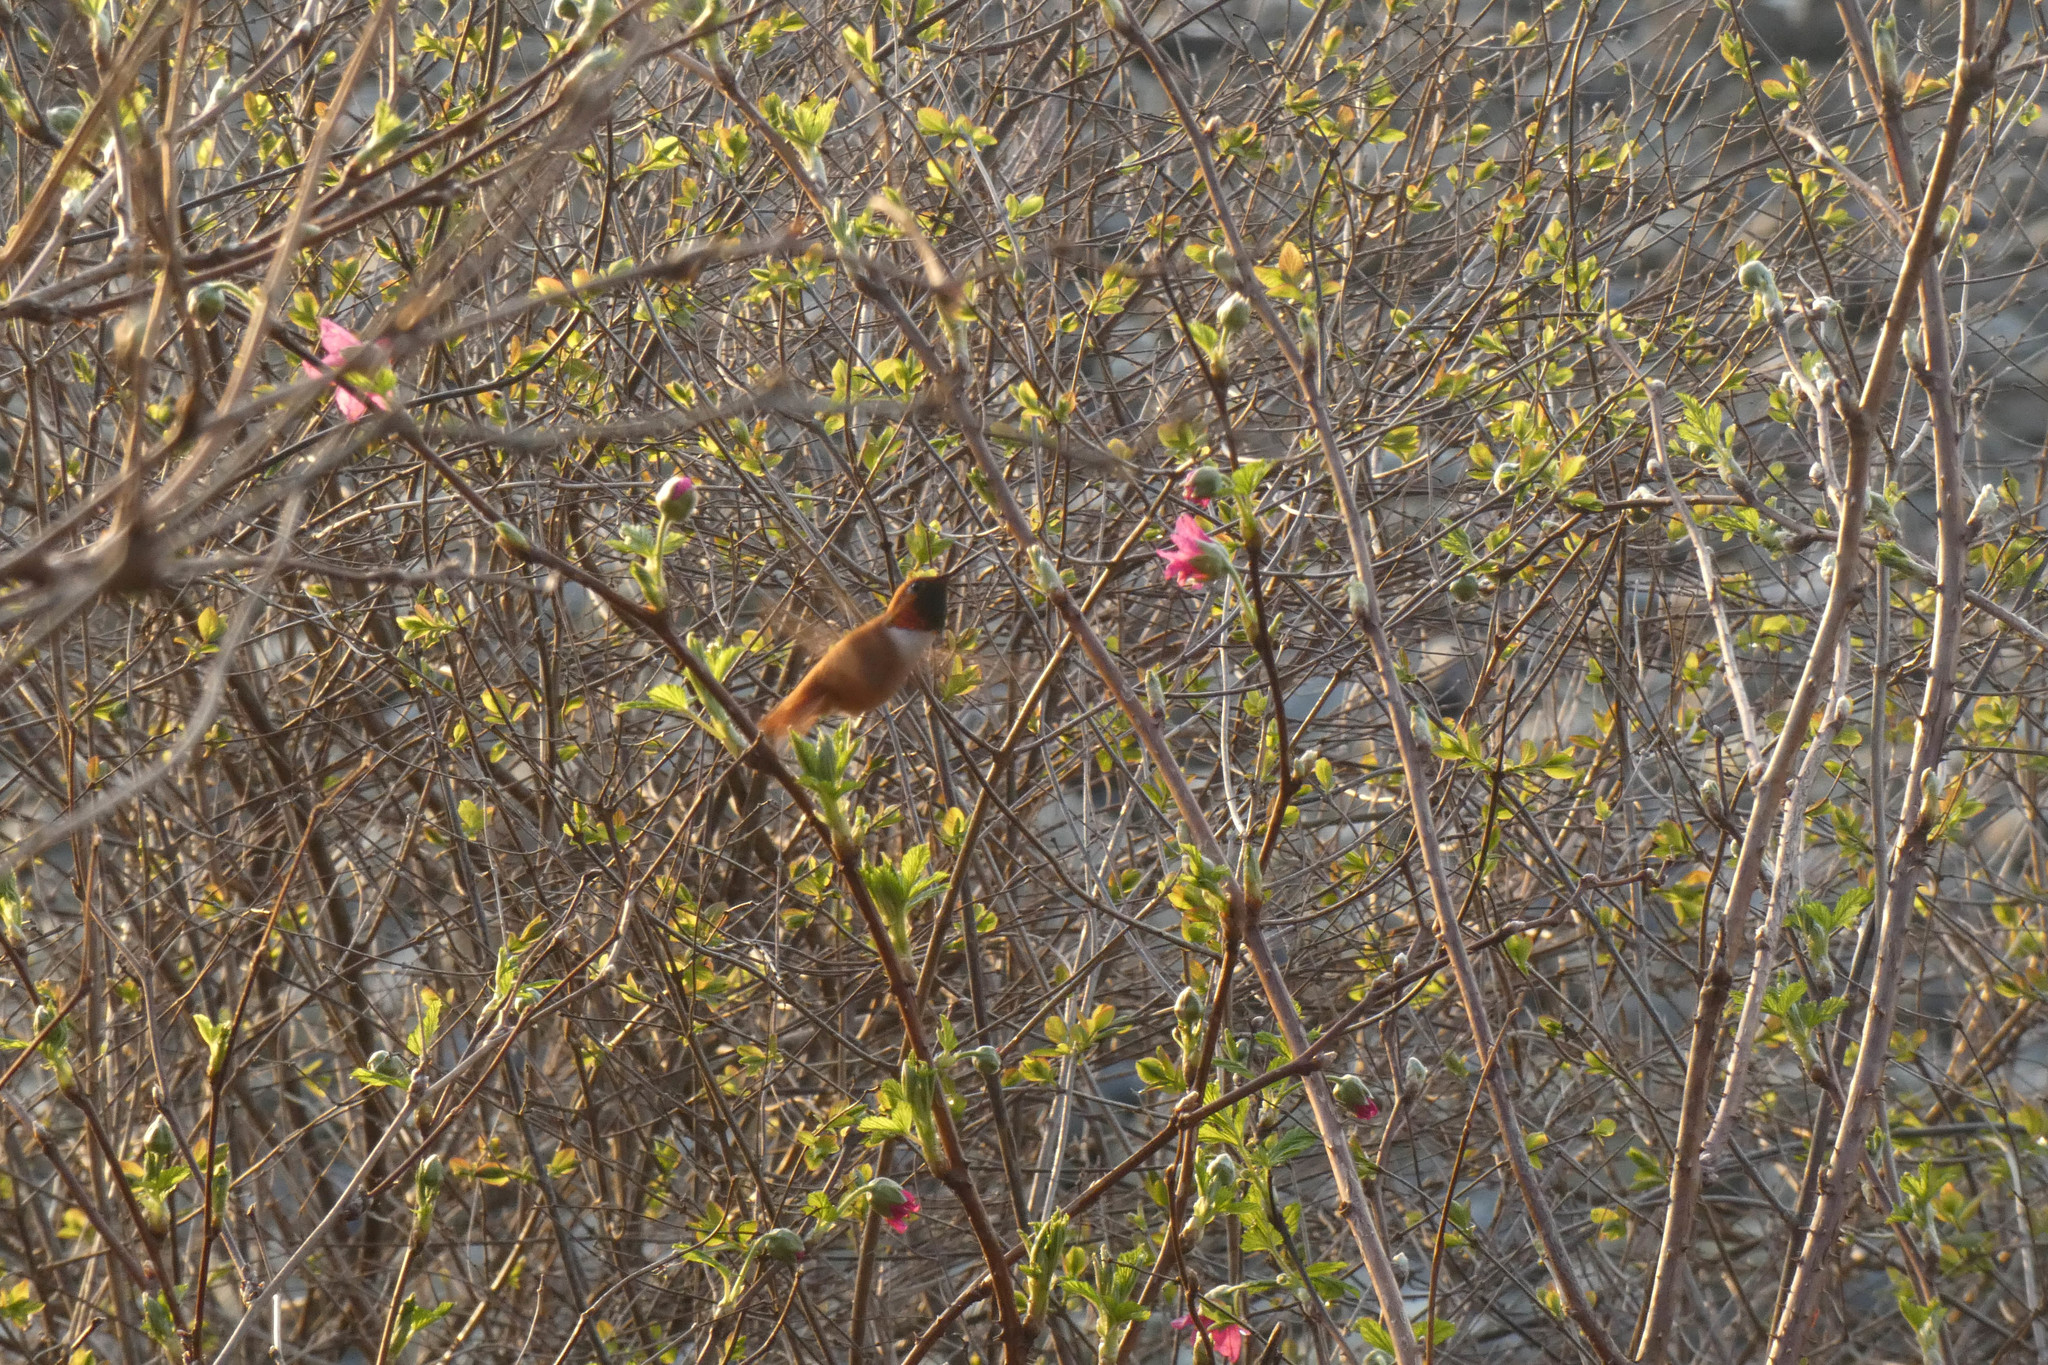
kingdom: Plantae
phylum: Tracheophyta
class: Magnoliopsida
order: Rosales
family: Rosaceae
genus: Rubus
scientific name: Rubus spectabilis
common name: Salmonberry
